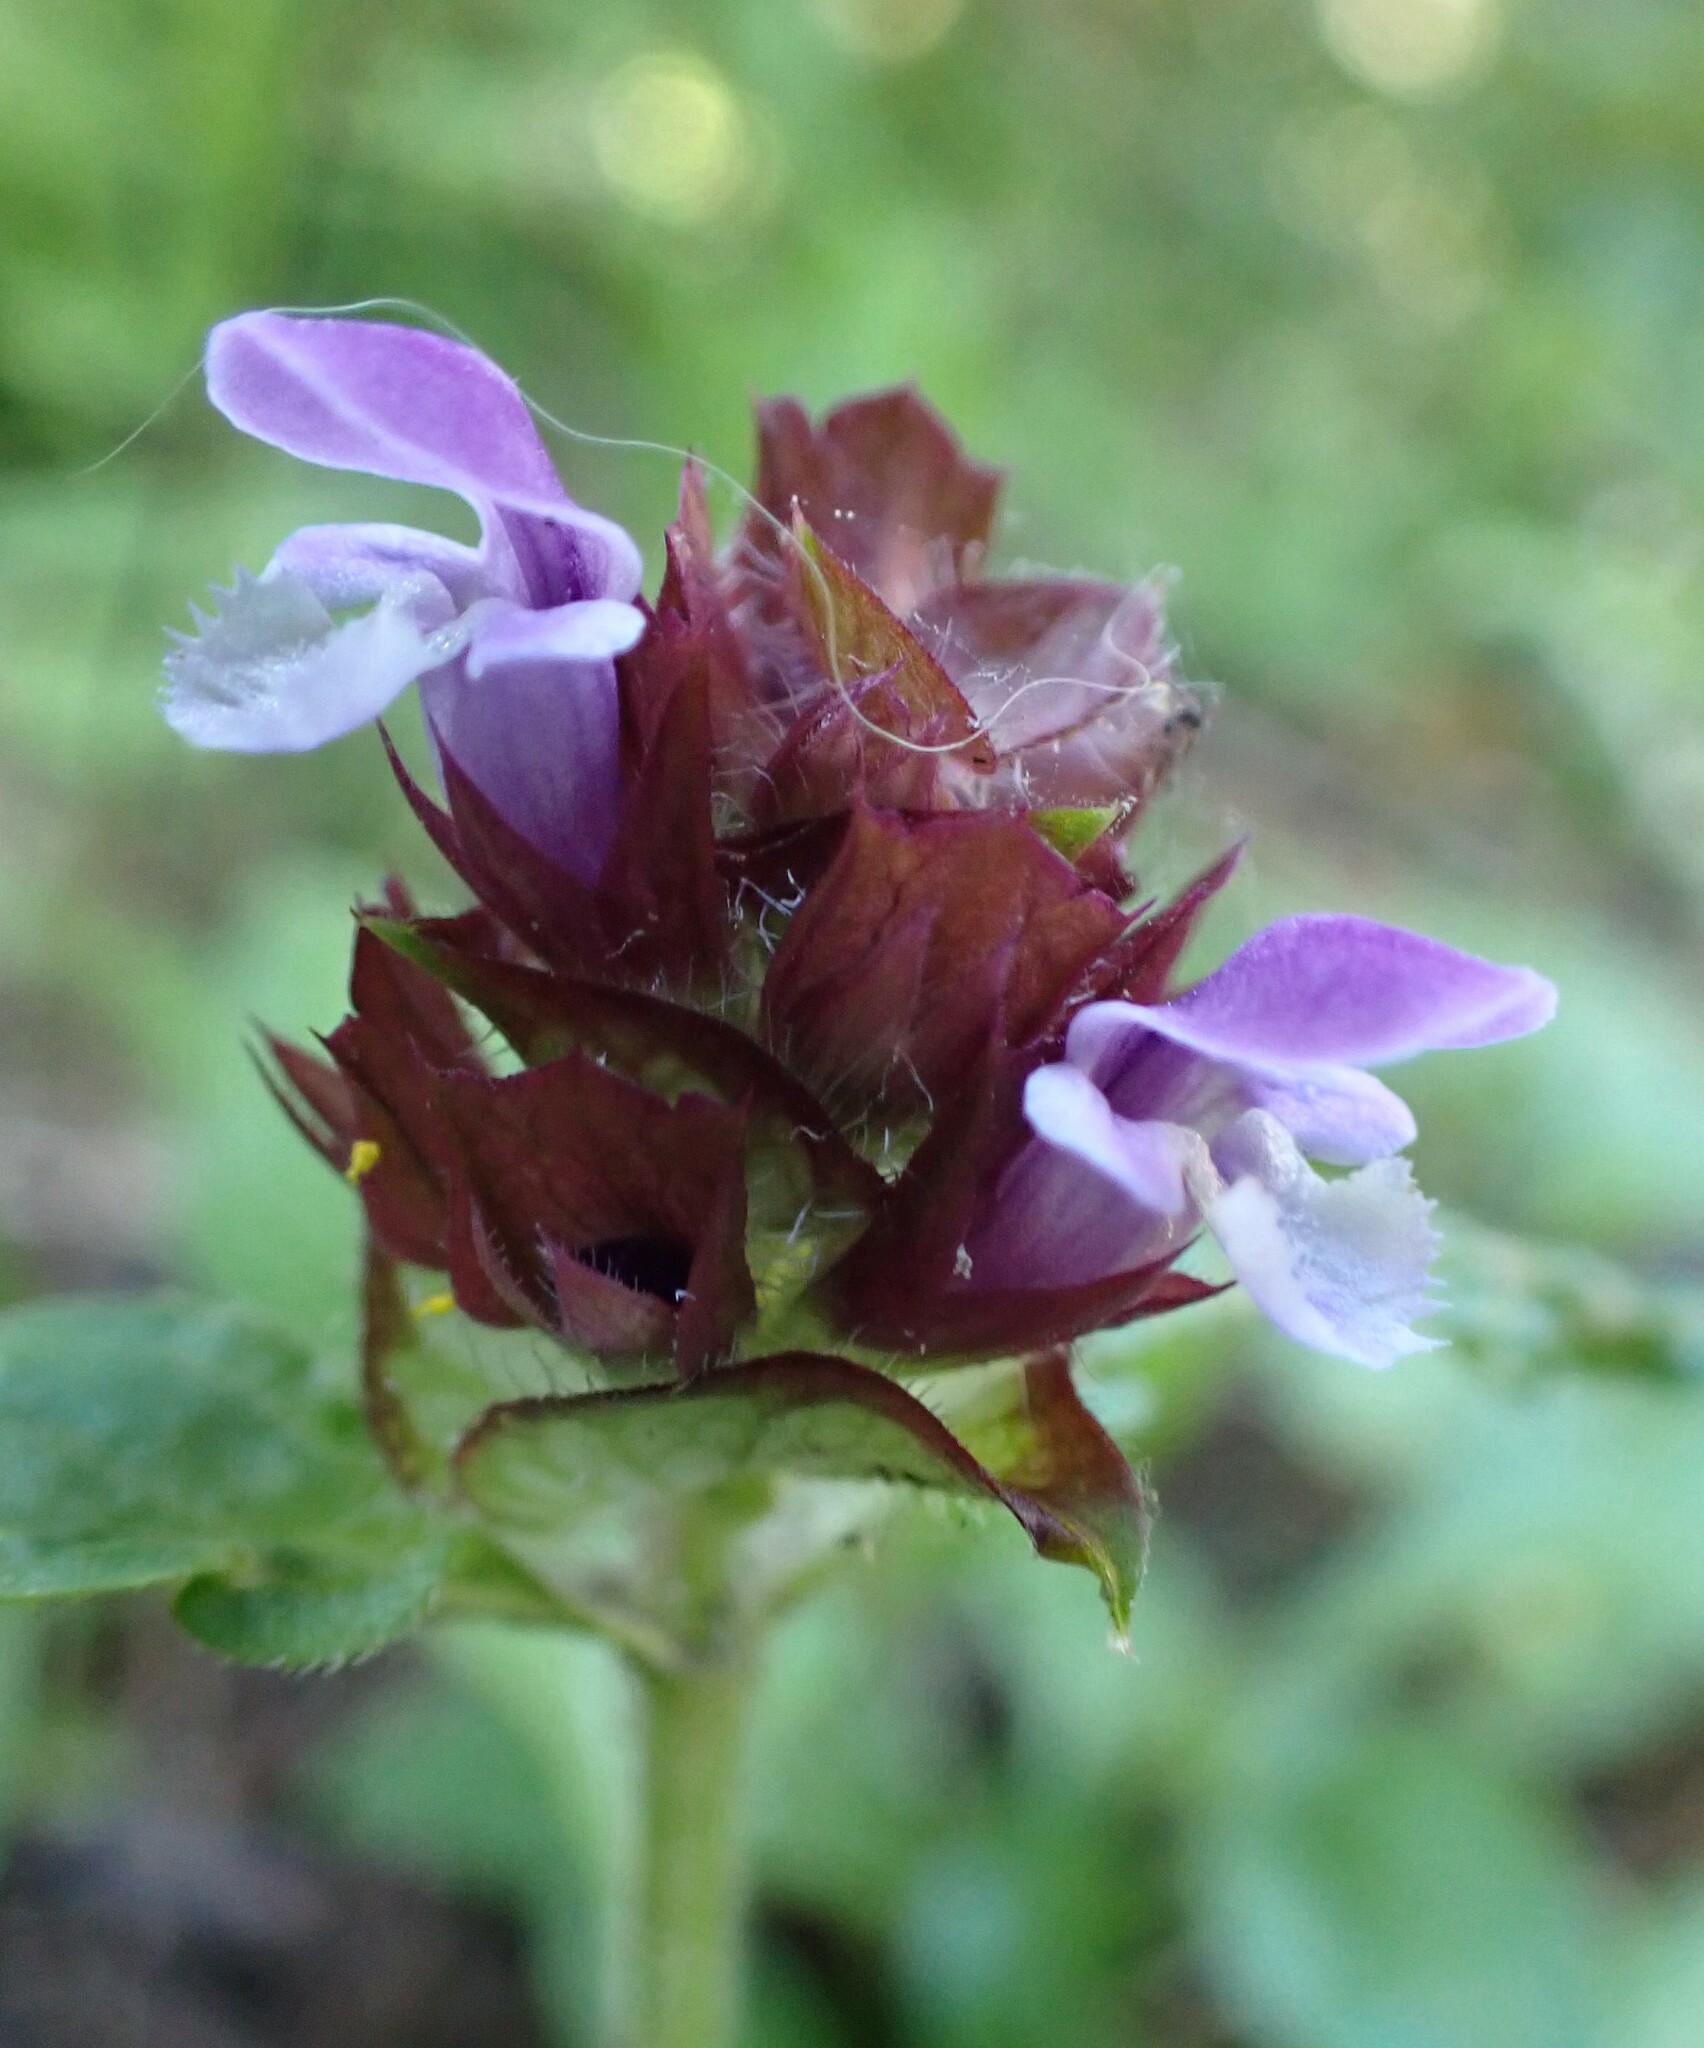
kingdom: Plantae
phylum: Tracheophyta
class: Magnoliopsida
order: Lamiales
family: Lamiaceae
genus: Prunella
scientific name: Prunella vulgaris
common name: Heal-all
